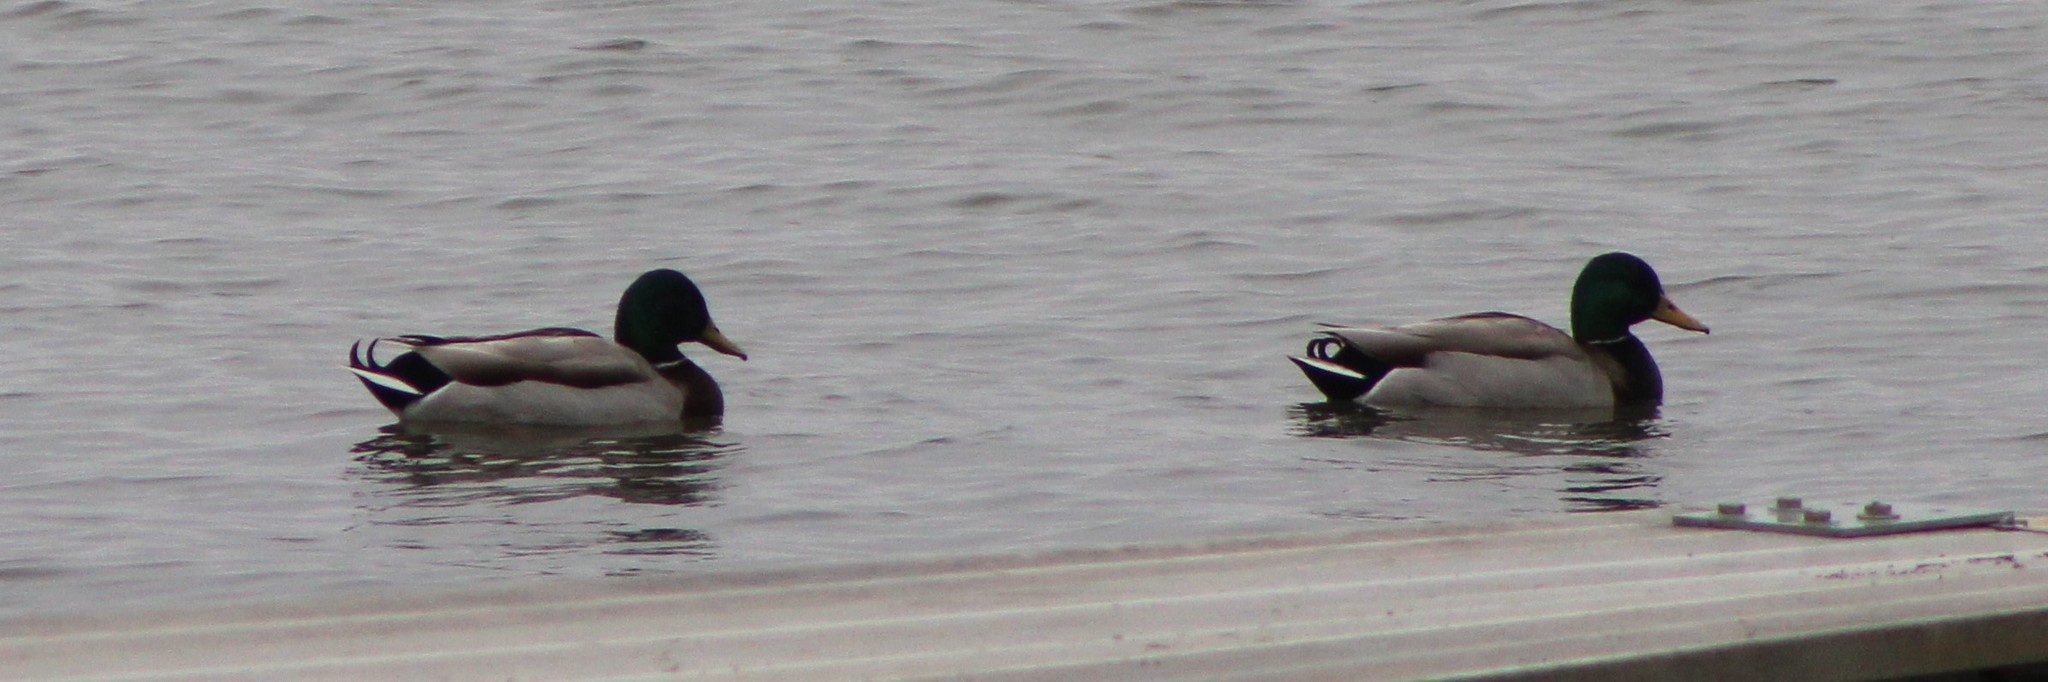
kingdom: Animalia
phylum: Chordata
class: Aves
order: Anseriformes
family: Anatidae
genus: Anas
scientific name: Anas platyrhynchos
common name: Mallard
